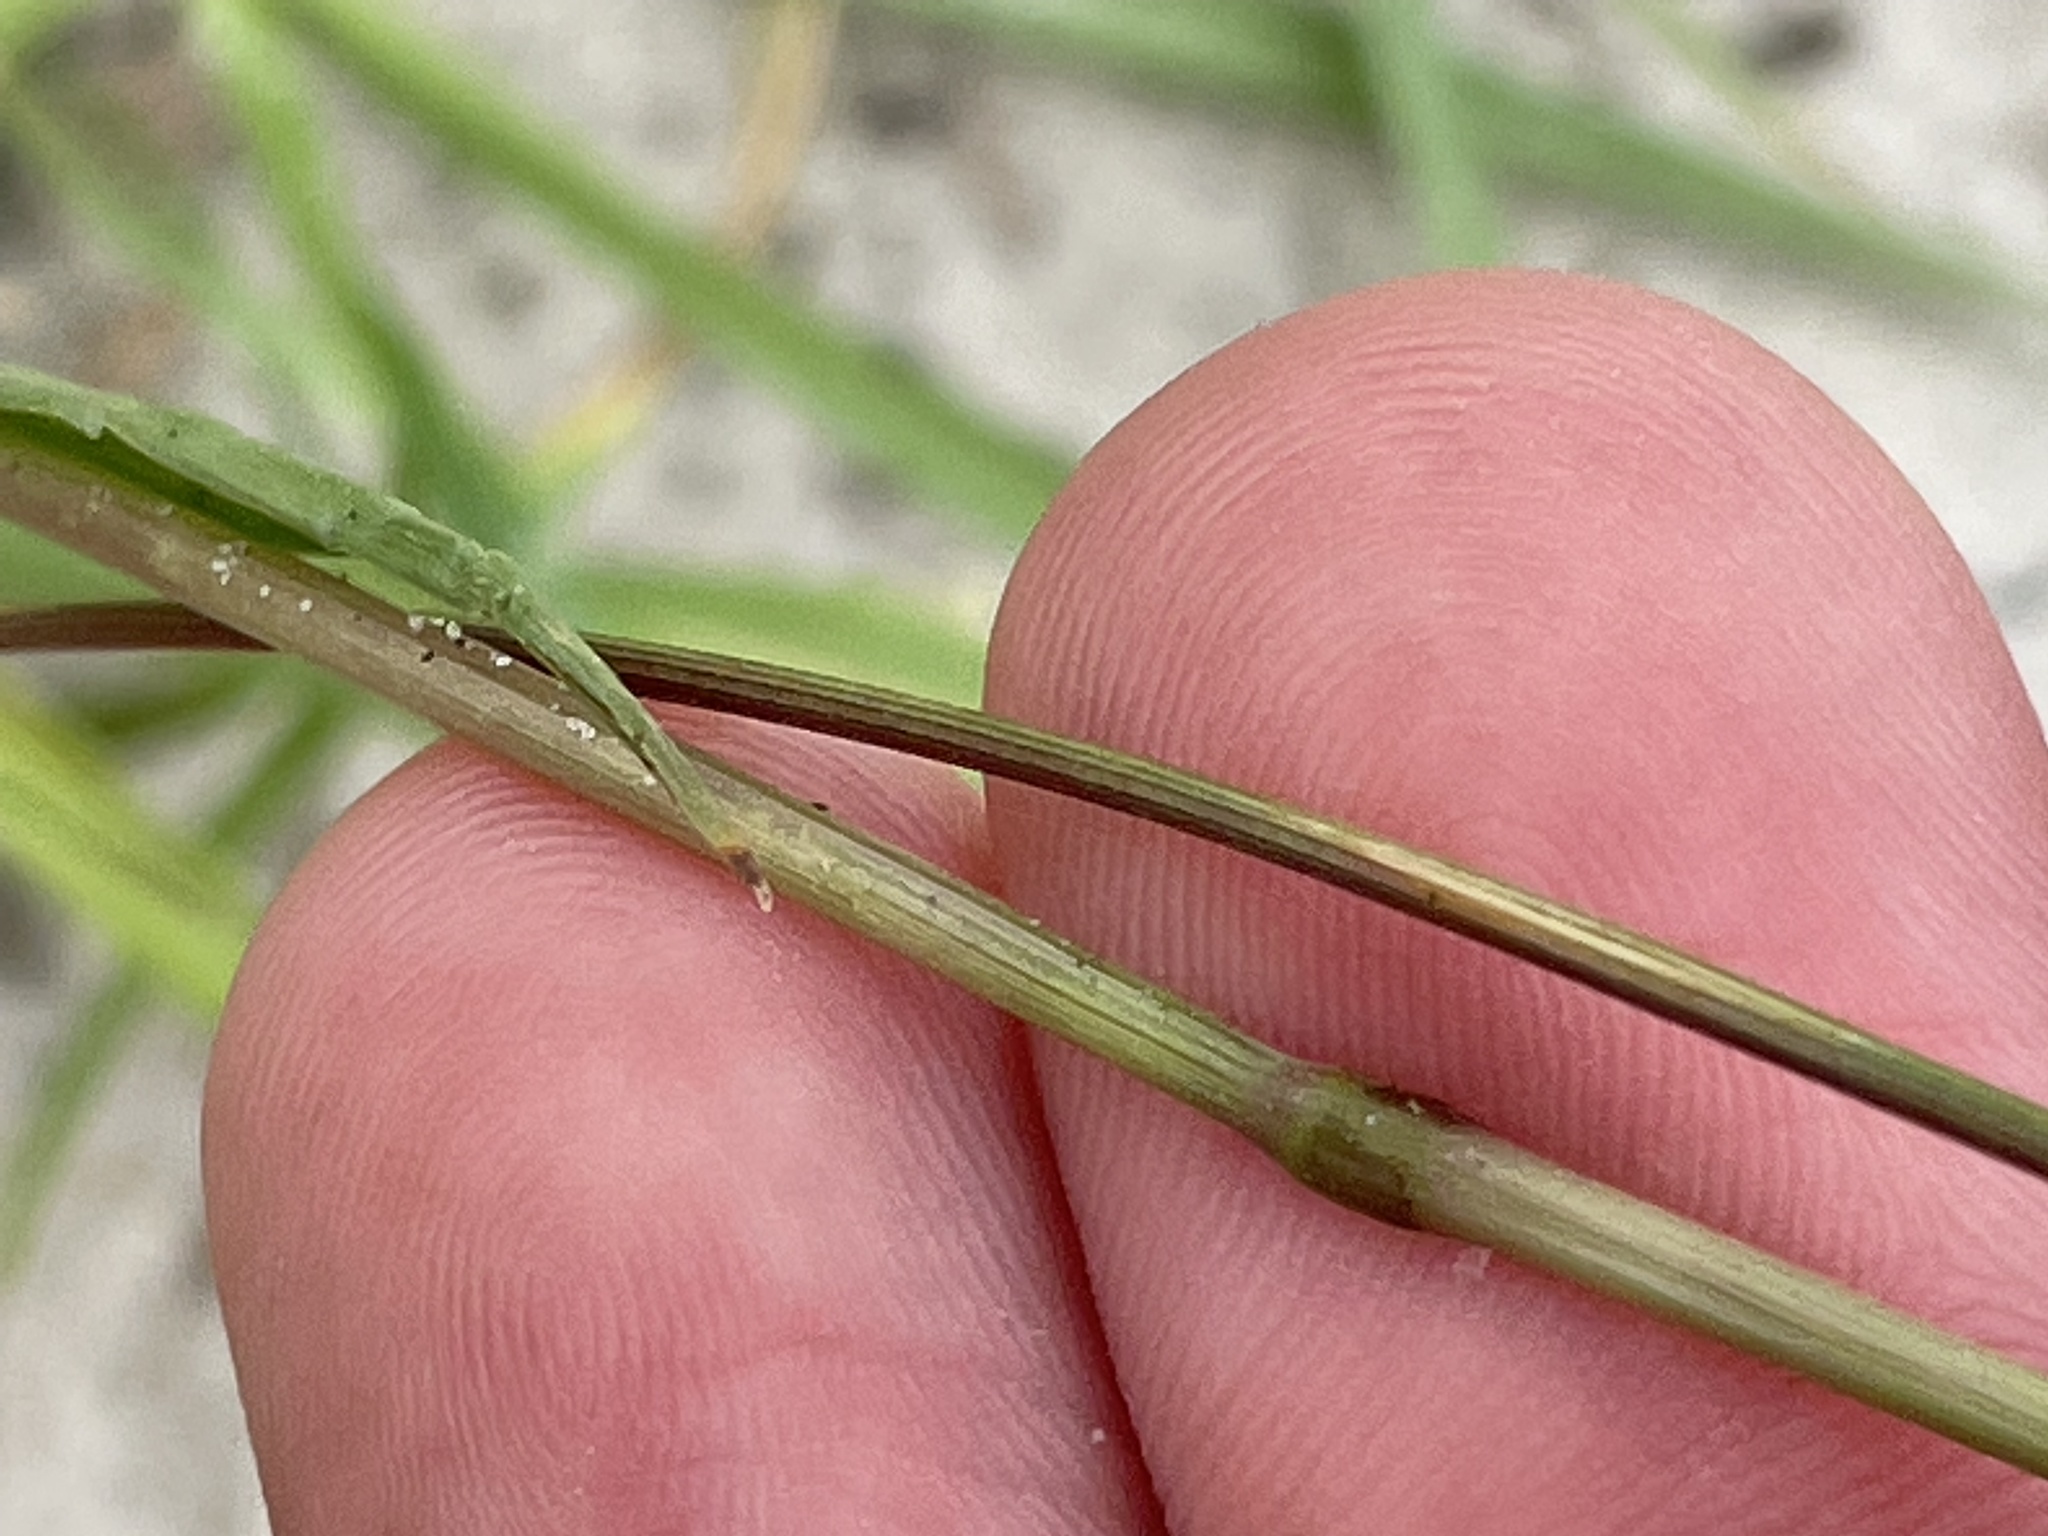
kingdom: Plantae
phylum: Tracheophyta
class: Liliopsida
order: Poales
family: Poaceae
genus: Paspalum
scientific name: Paspalum notatum
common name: Bahiagrass
